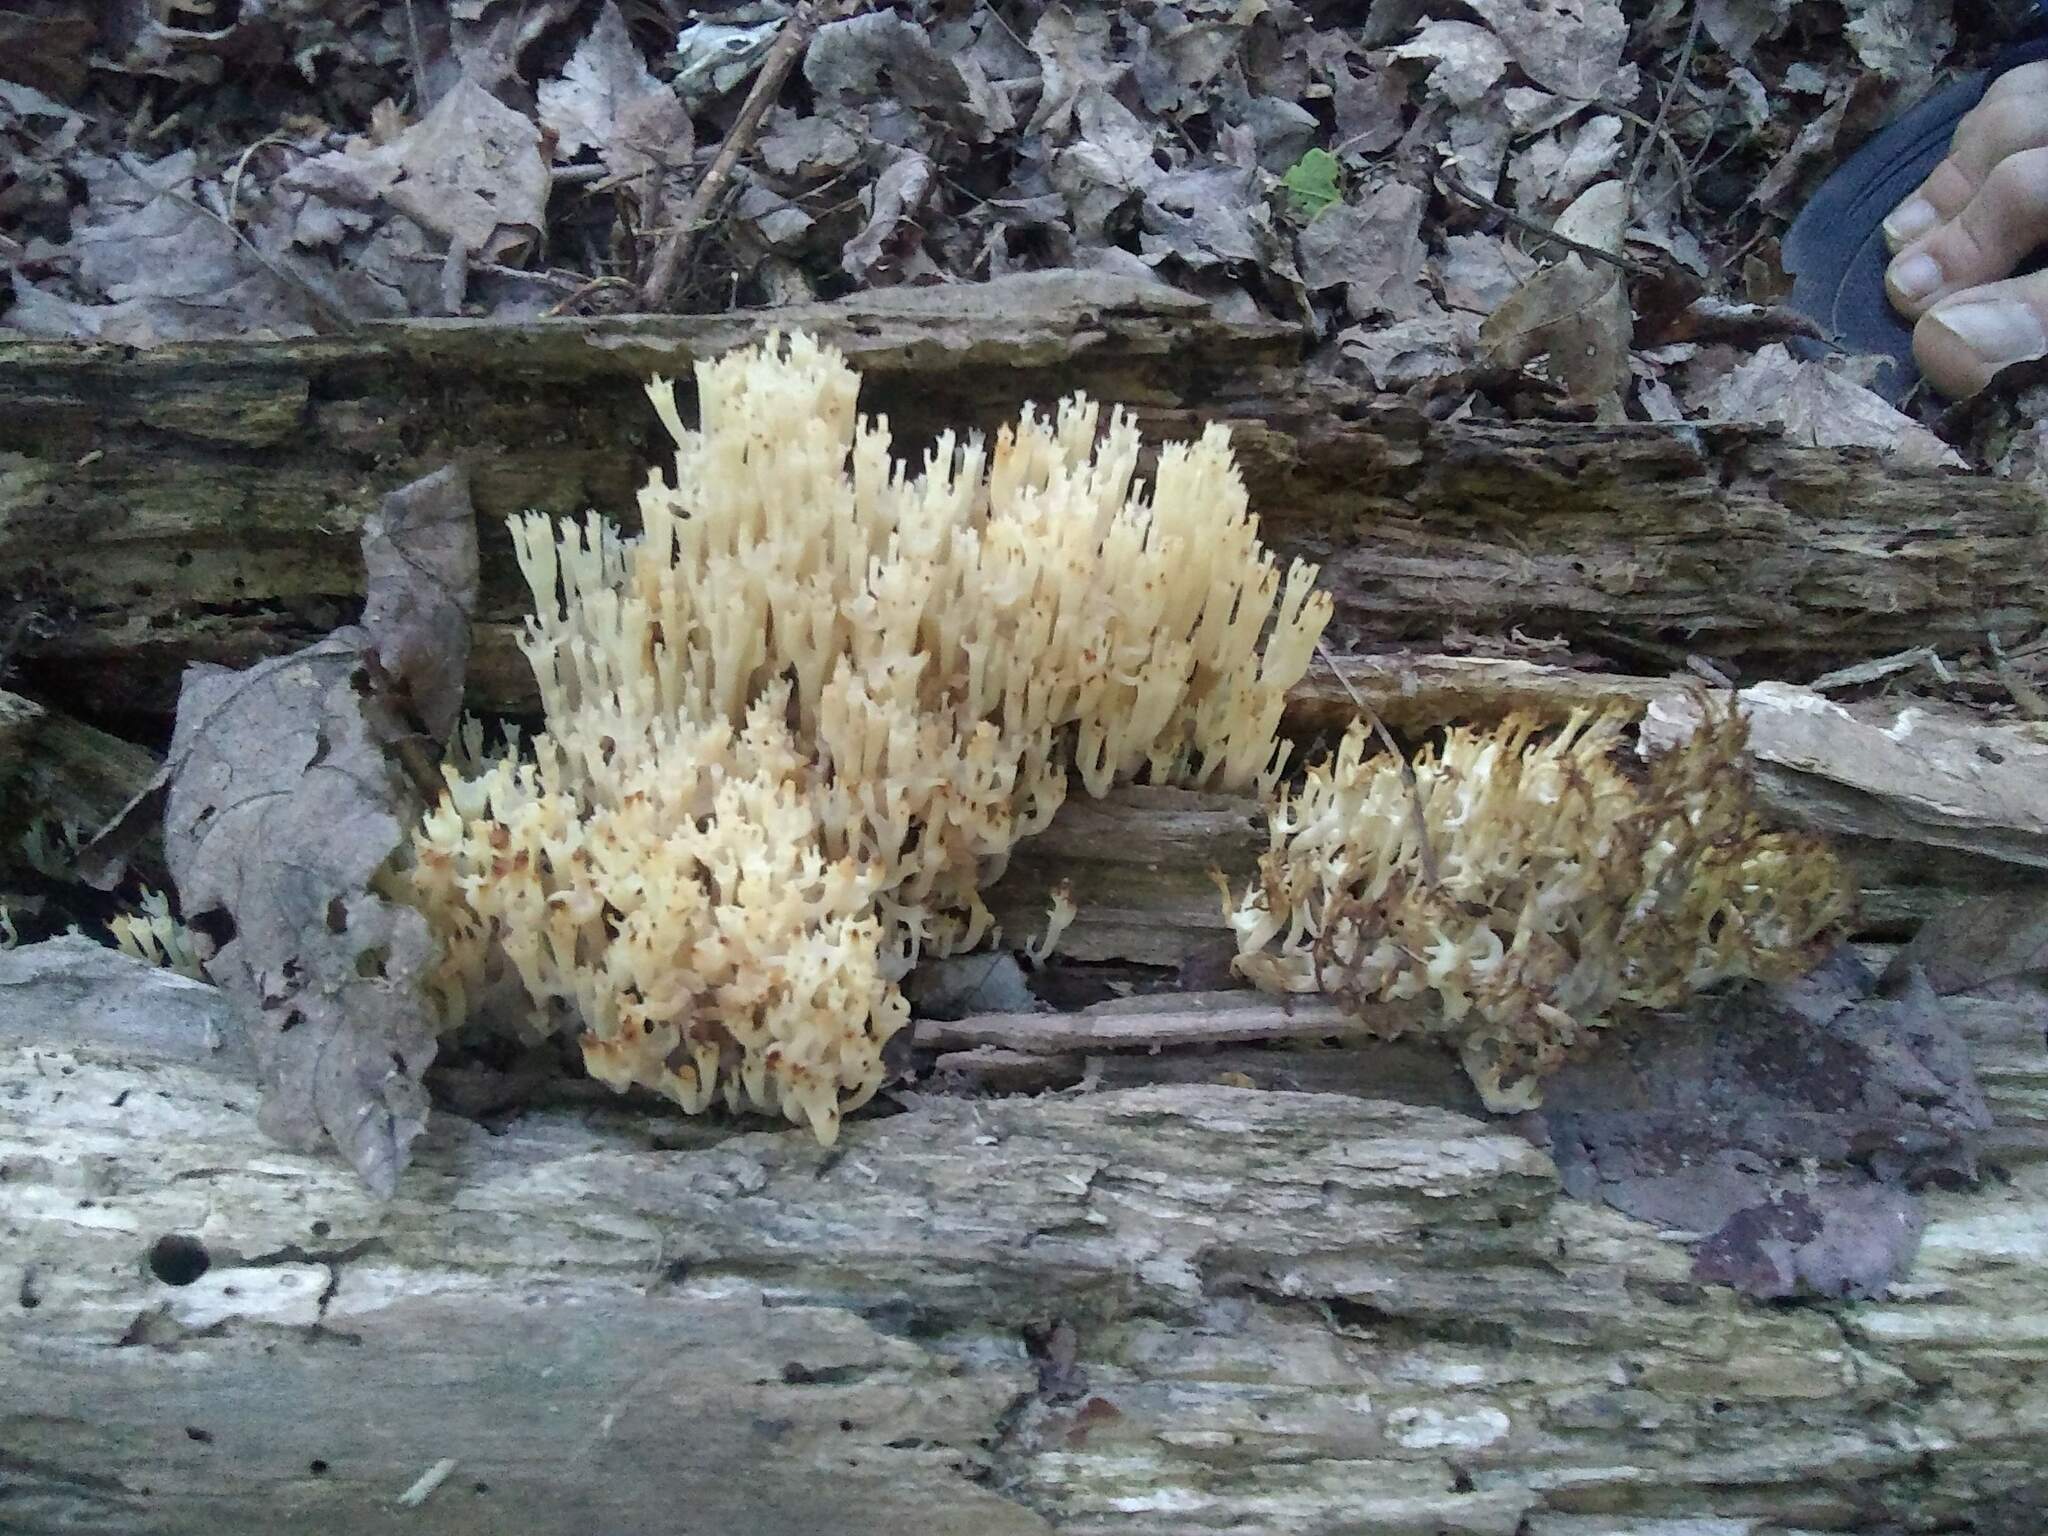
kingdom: Fungi
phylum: Basidiomycota
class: Agaricomycetes
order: Russulales
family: Auriscalpiaceae
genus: Artomyces
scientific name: Artomyces pyxidatus
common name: Crown-tipped coral fungus
